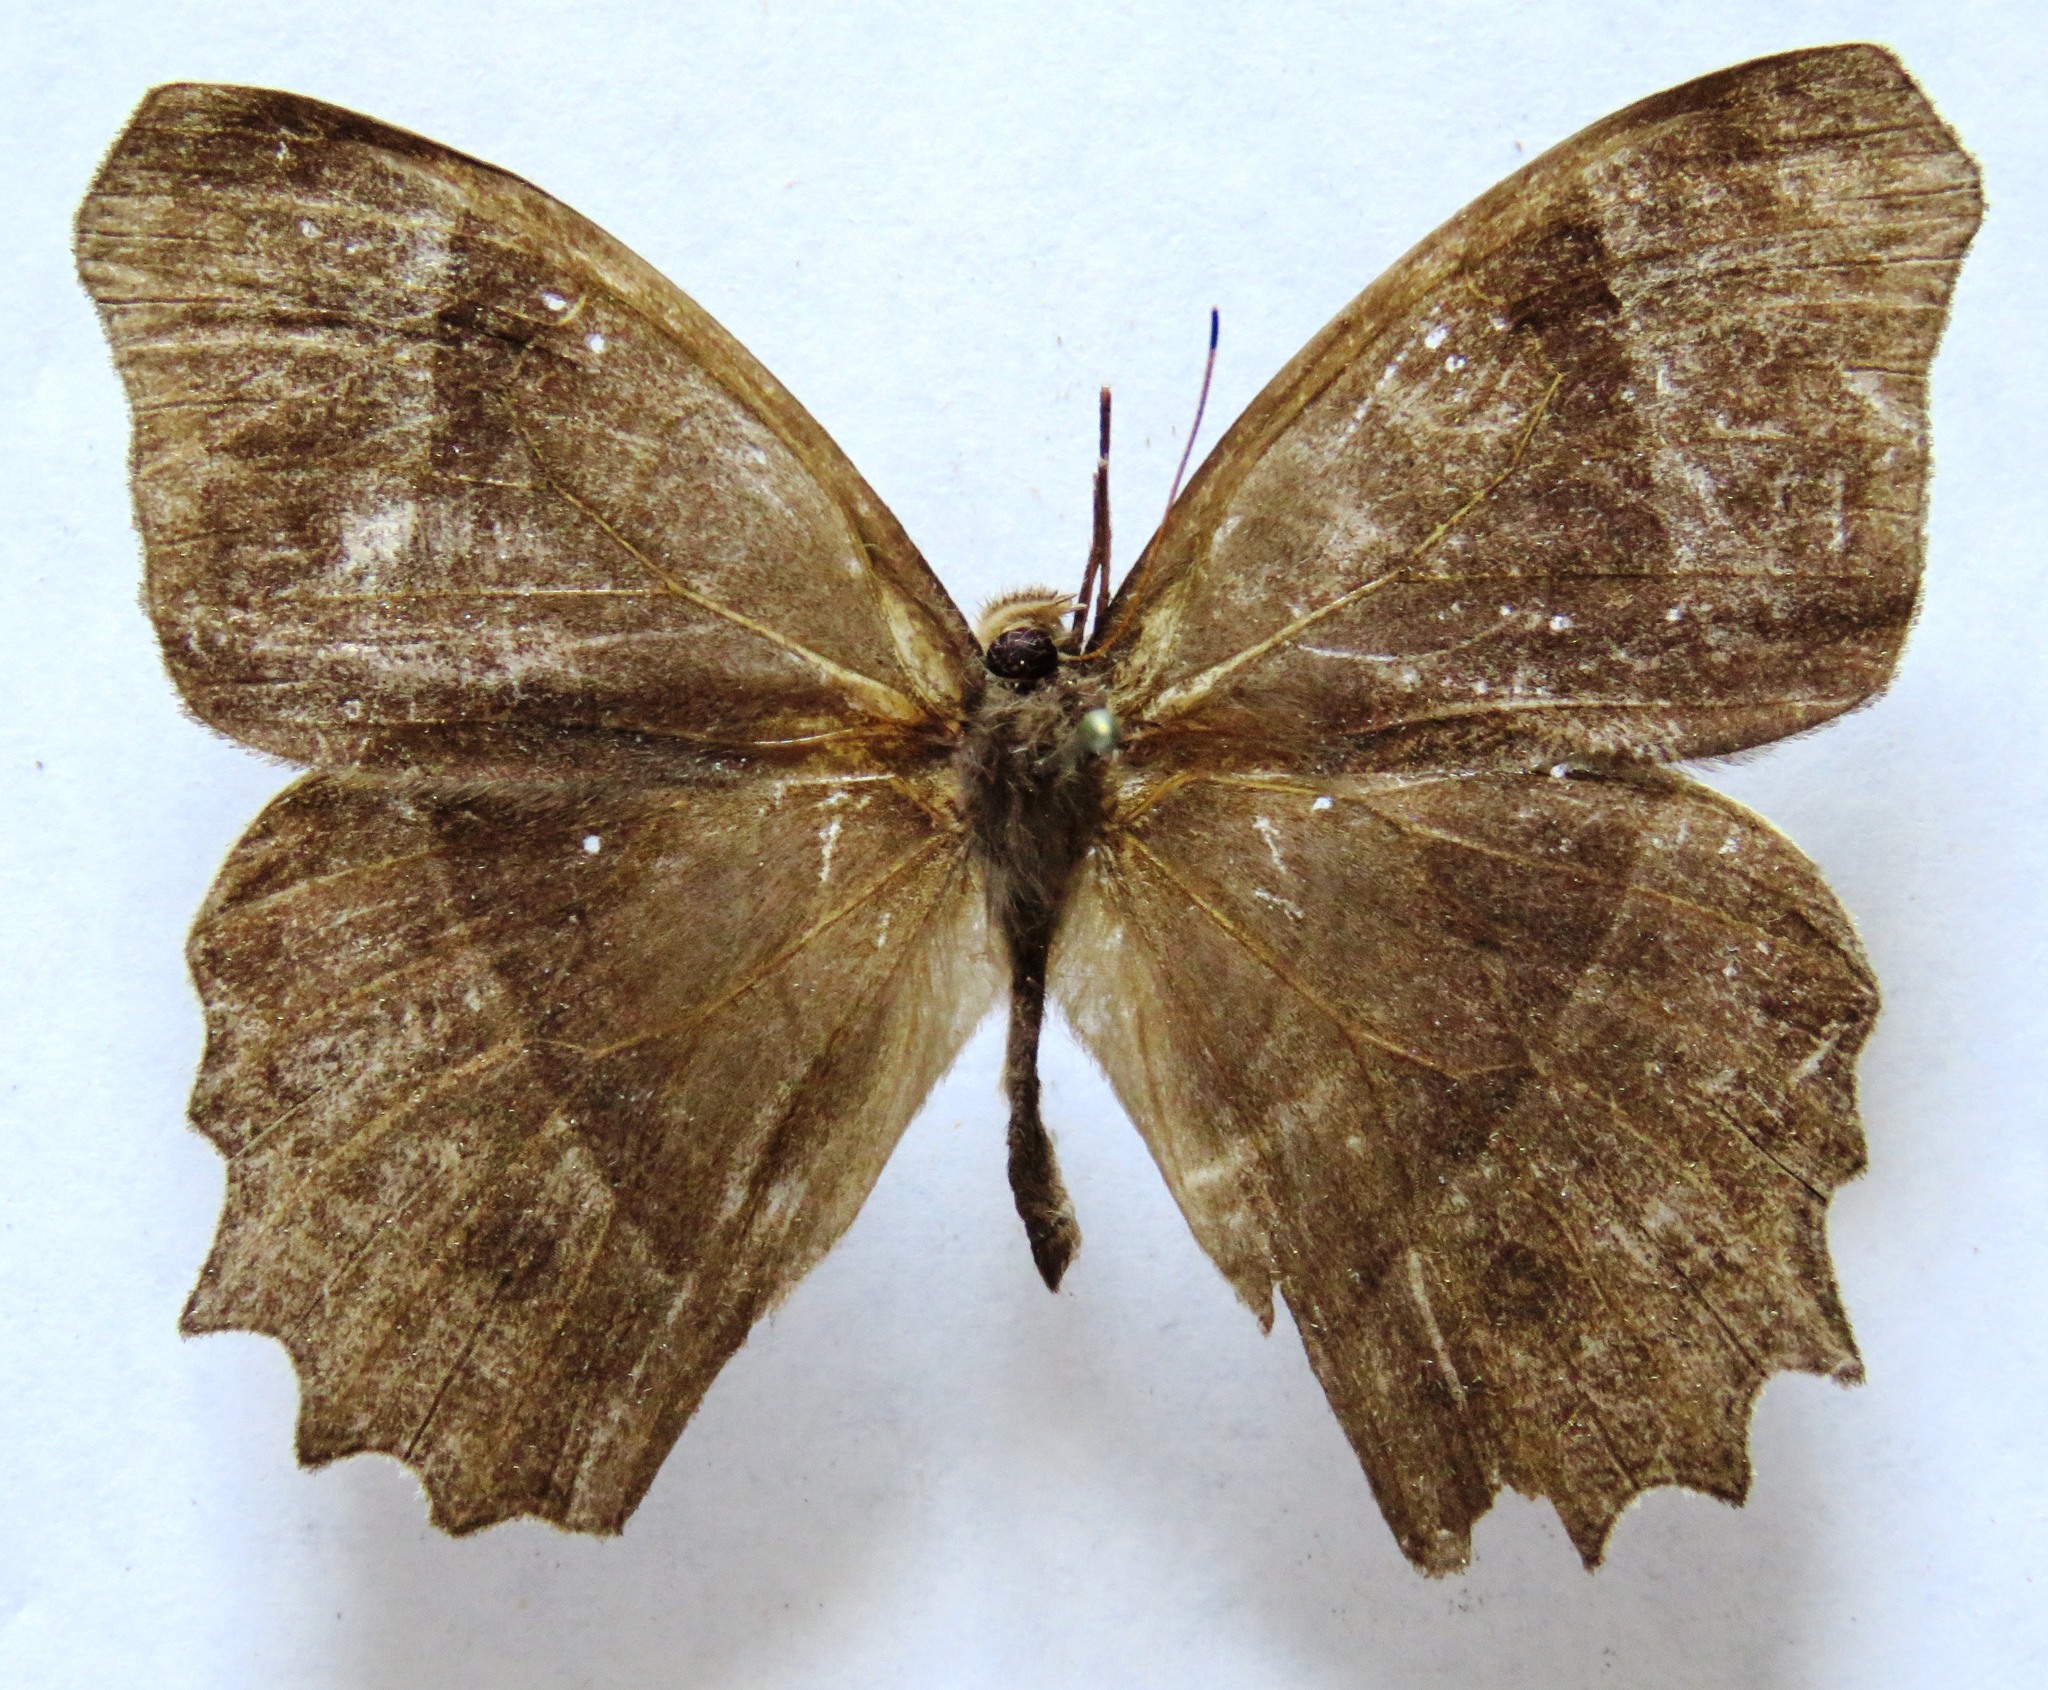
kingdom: Animalia
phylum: Arthropoda
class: Insecta
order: Lepidoptera
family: Nymphalidae
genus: Taygetis
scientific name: Taygetis andromeda
